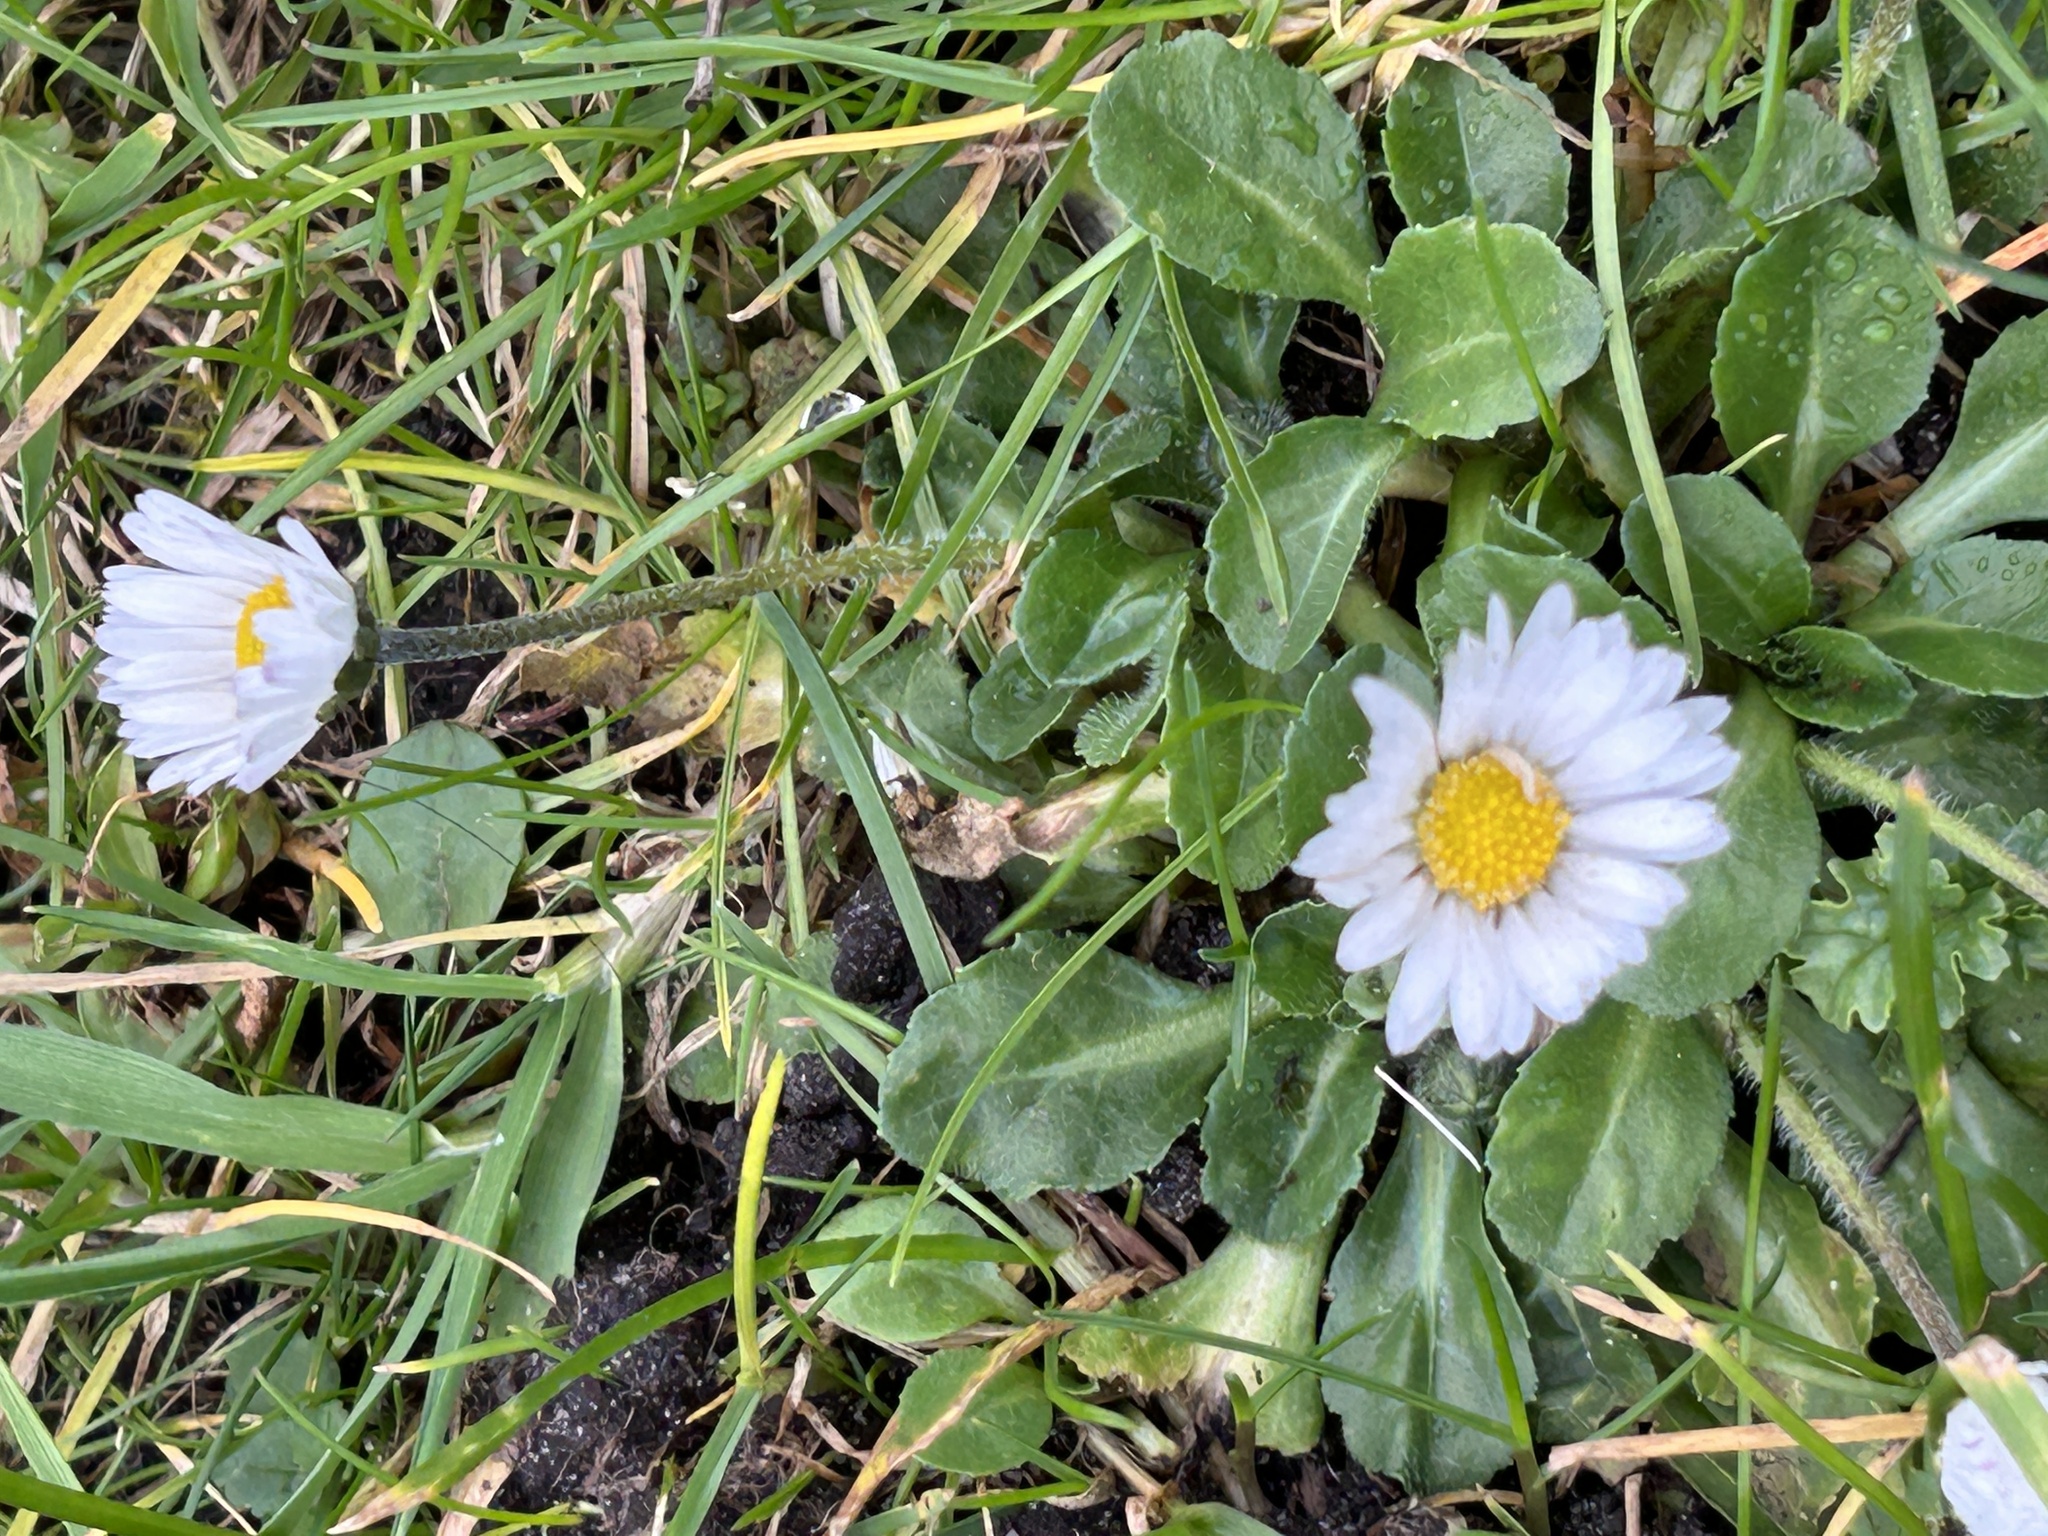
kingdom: Plantae
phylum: Tracheophyta
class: Magnoliopsida
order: Asterales
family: Asteraceae
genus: Bellis
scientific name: Bellis perennis
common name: Lawndaisy
